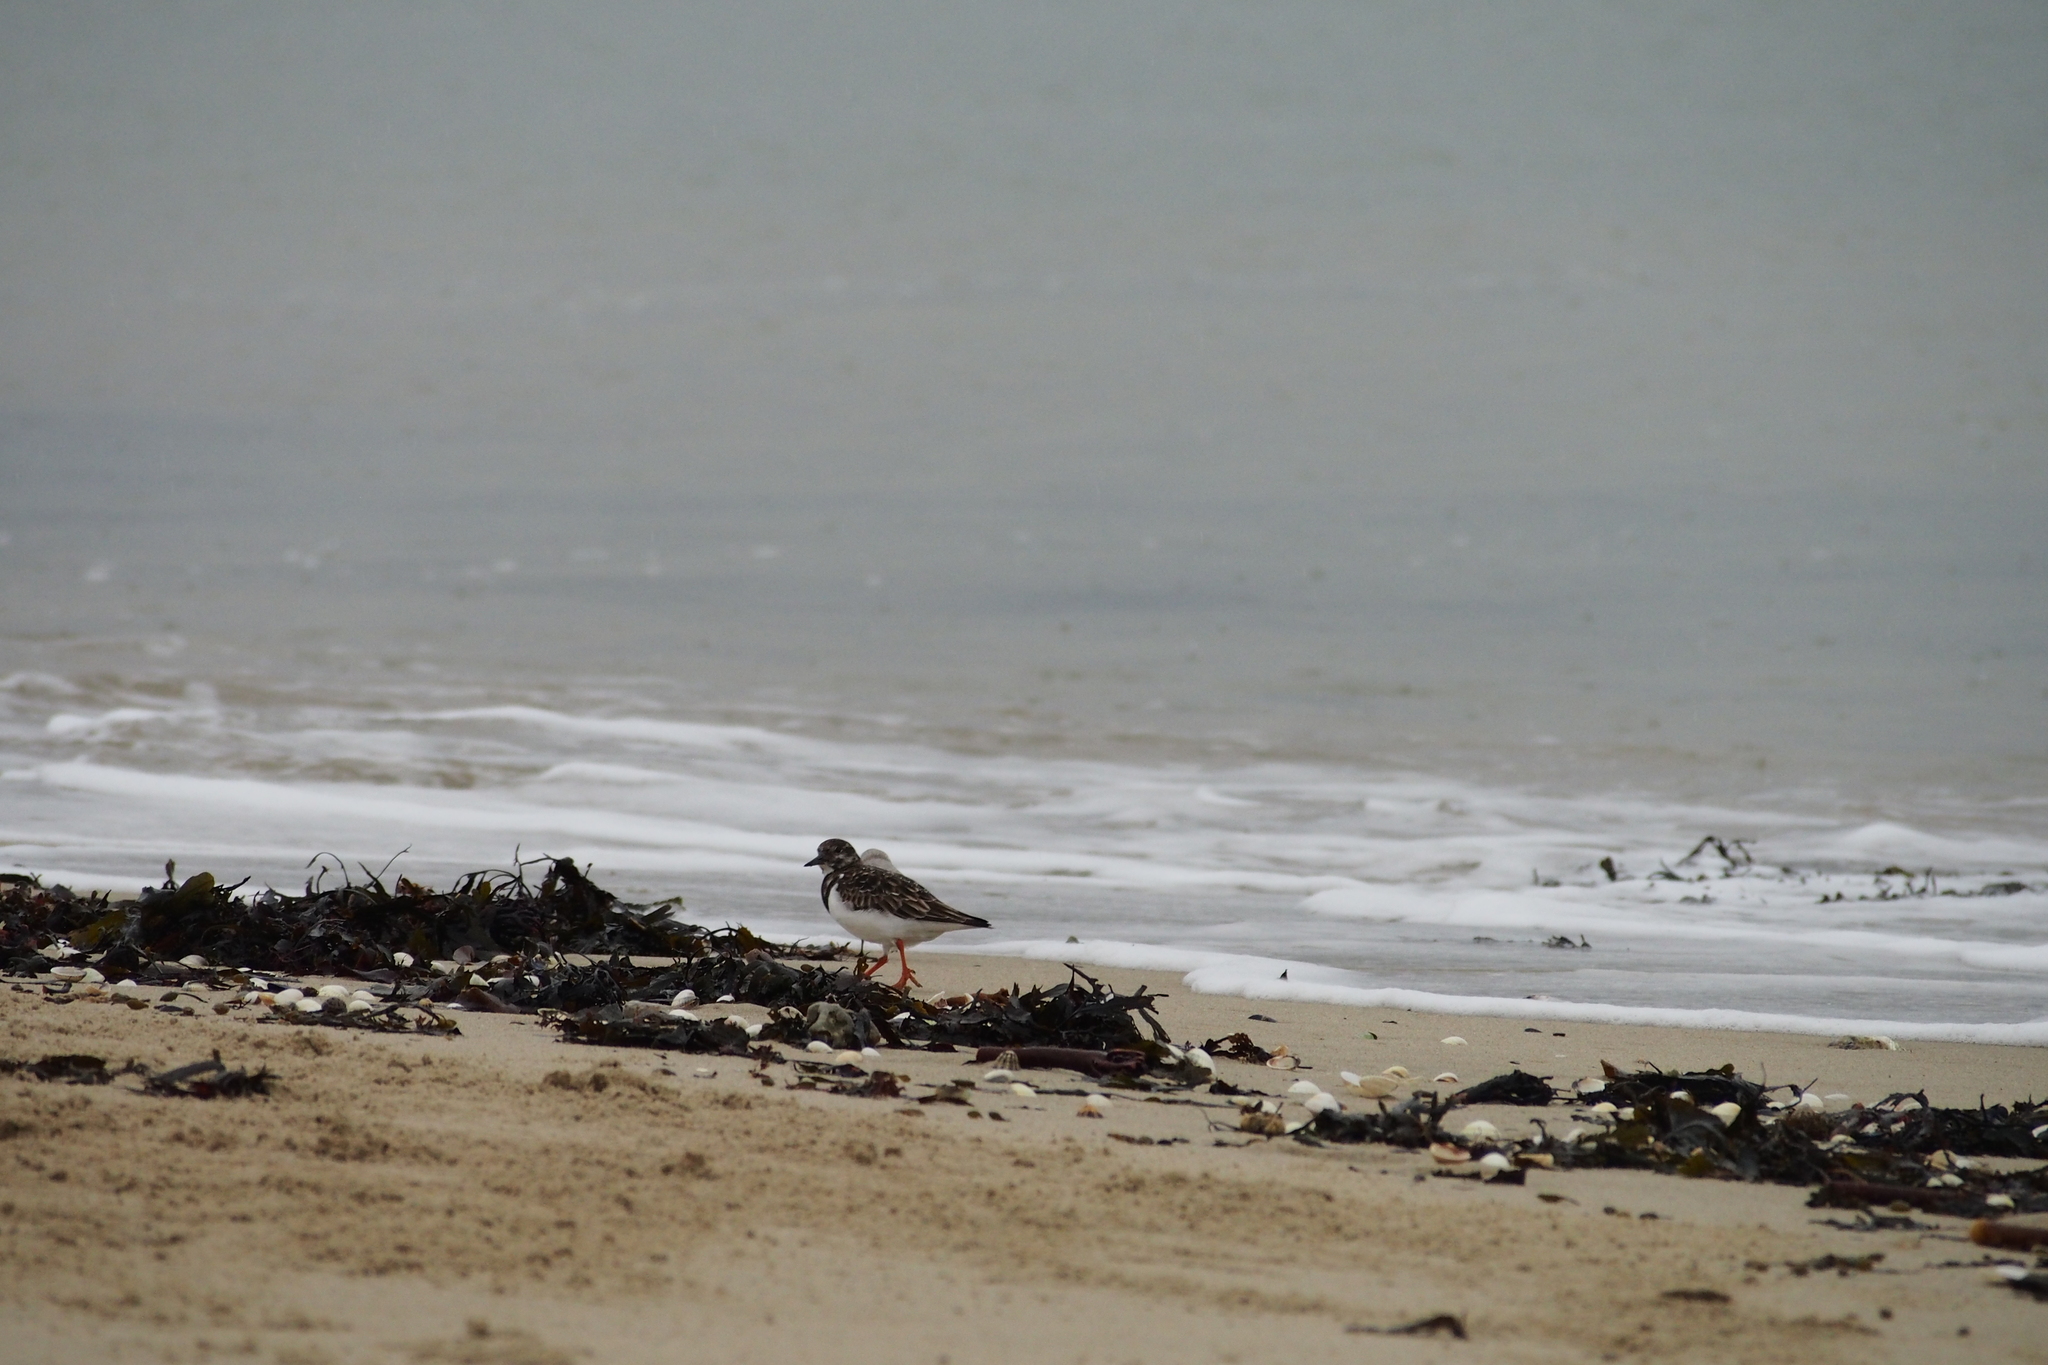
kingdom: Animalia
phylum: Chordata
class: Aves
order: Charadriiformes
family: Scolopacidae
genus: Arenaria
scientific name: Arenaria interpres
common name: Ruddy turnstone
